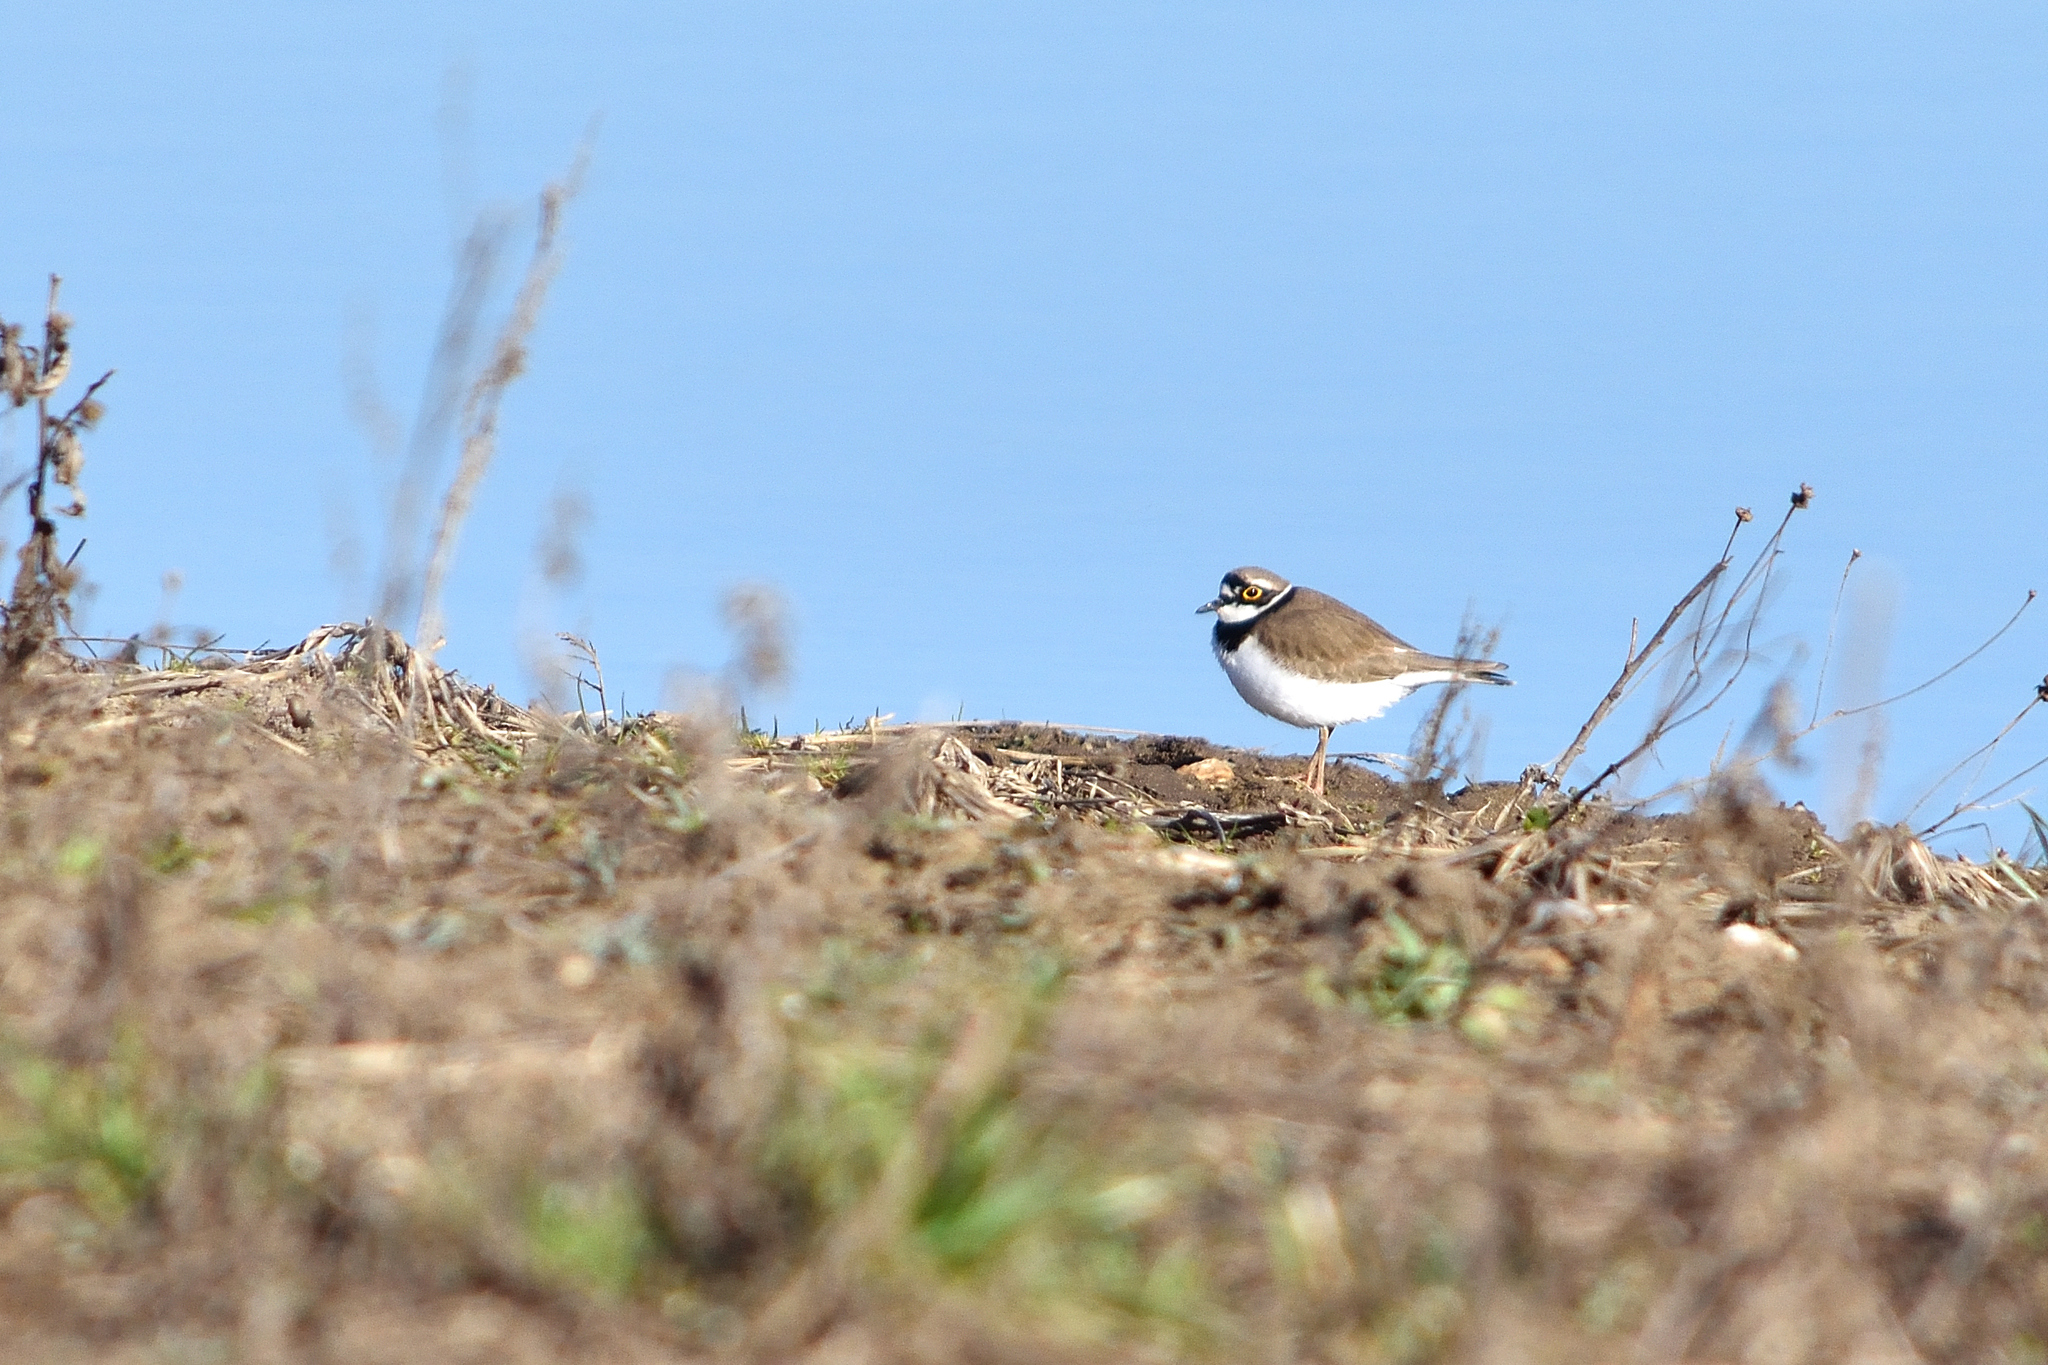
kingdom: Animalia
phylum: Chordata
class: Aves
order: Charadriiformes
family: Charadriidae
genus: Charadrius
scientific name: Charadrius dubius
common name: Little ringed plover
